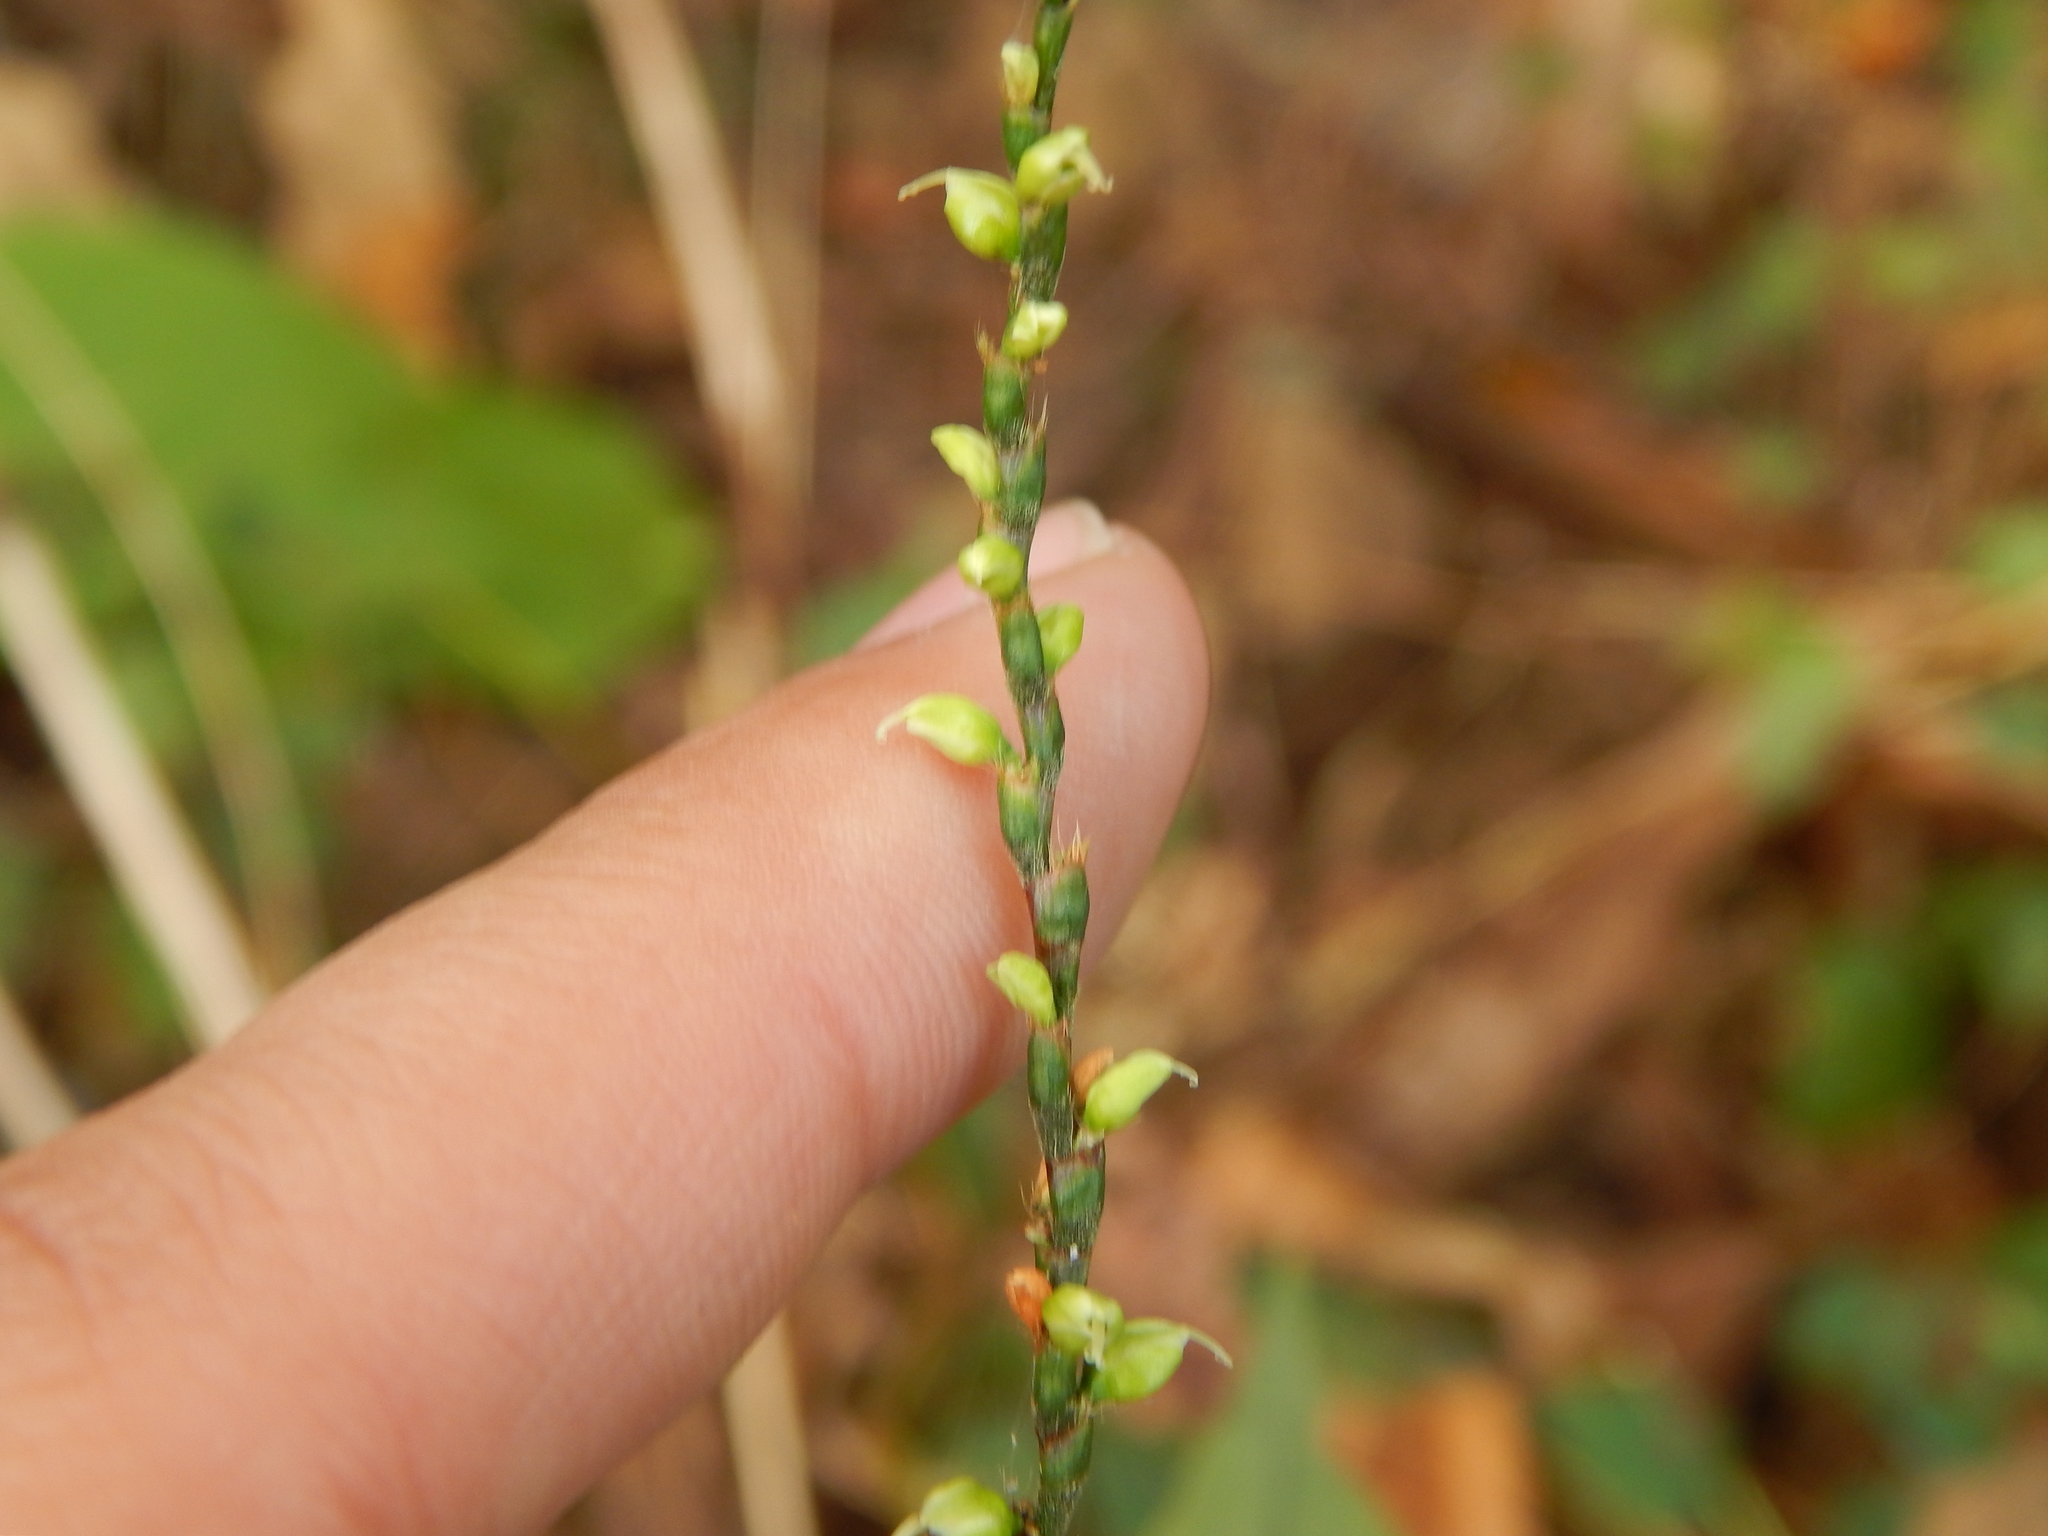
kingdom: Plantae
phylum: Tracheophyta
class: Magnoliopsida
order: Caryophyllales
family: Polygonaceae
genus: Persicaria
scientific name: Persicaria virginiana
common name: Jumpseed
